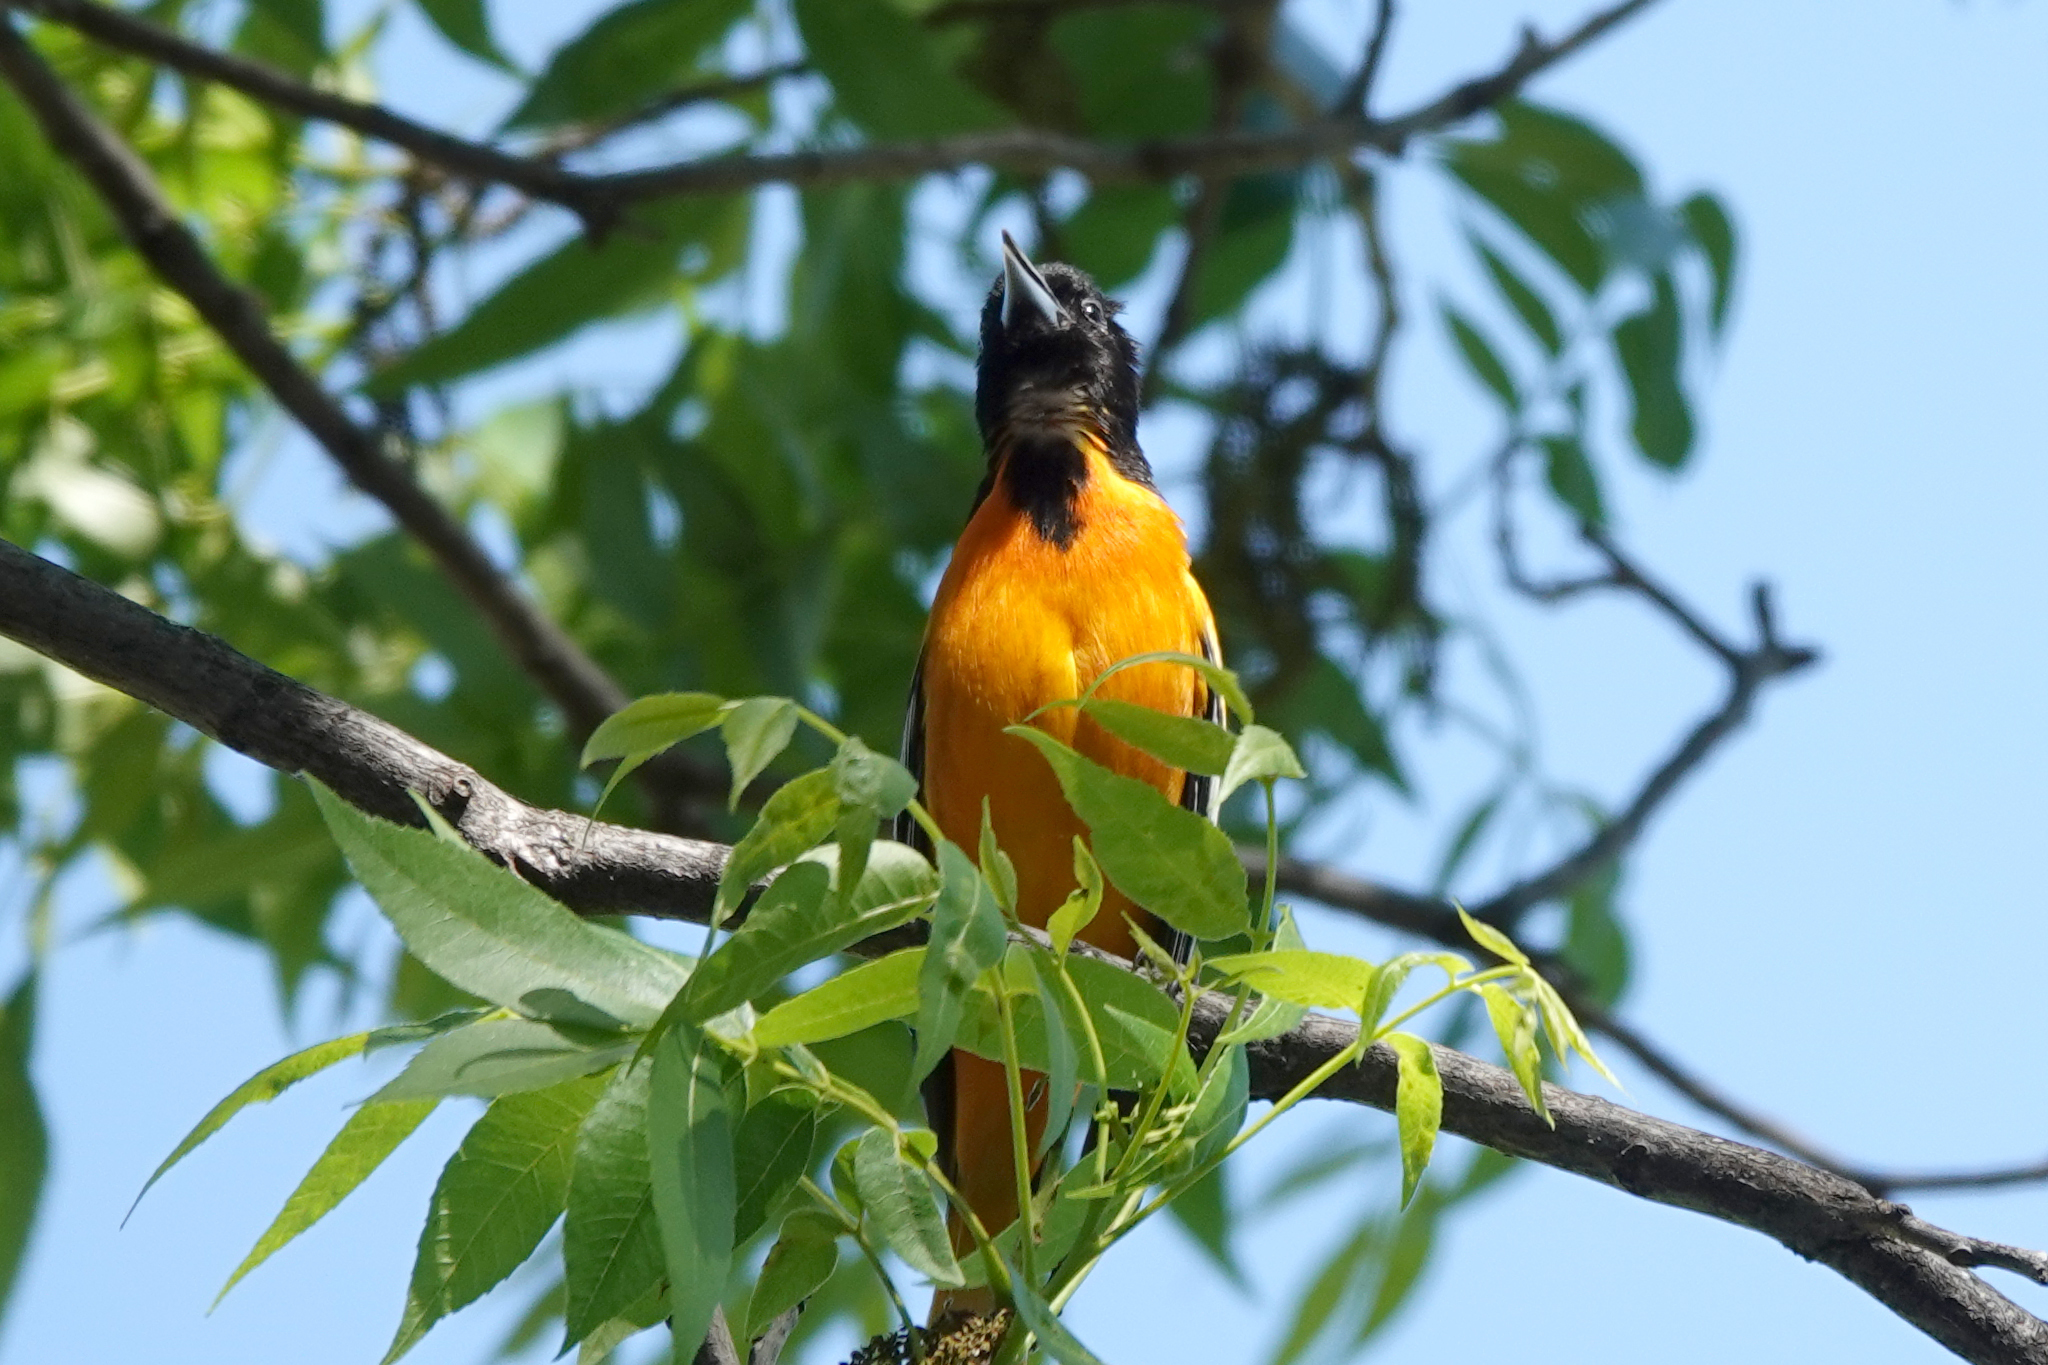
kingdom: Animalia
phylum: Chordata
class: Aves
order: Passeriformes
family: Icteridae
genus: Icterus
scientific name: Icterus galbula
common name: Baltimore oriole
